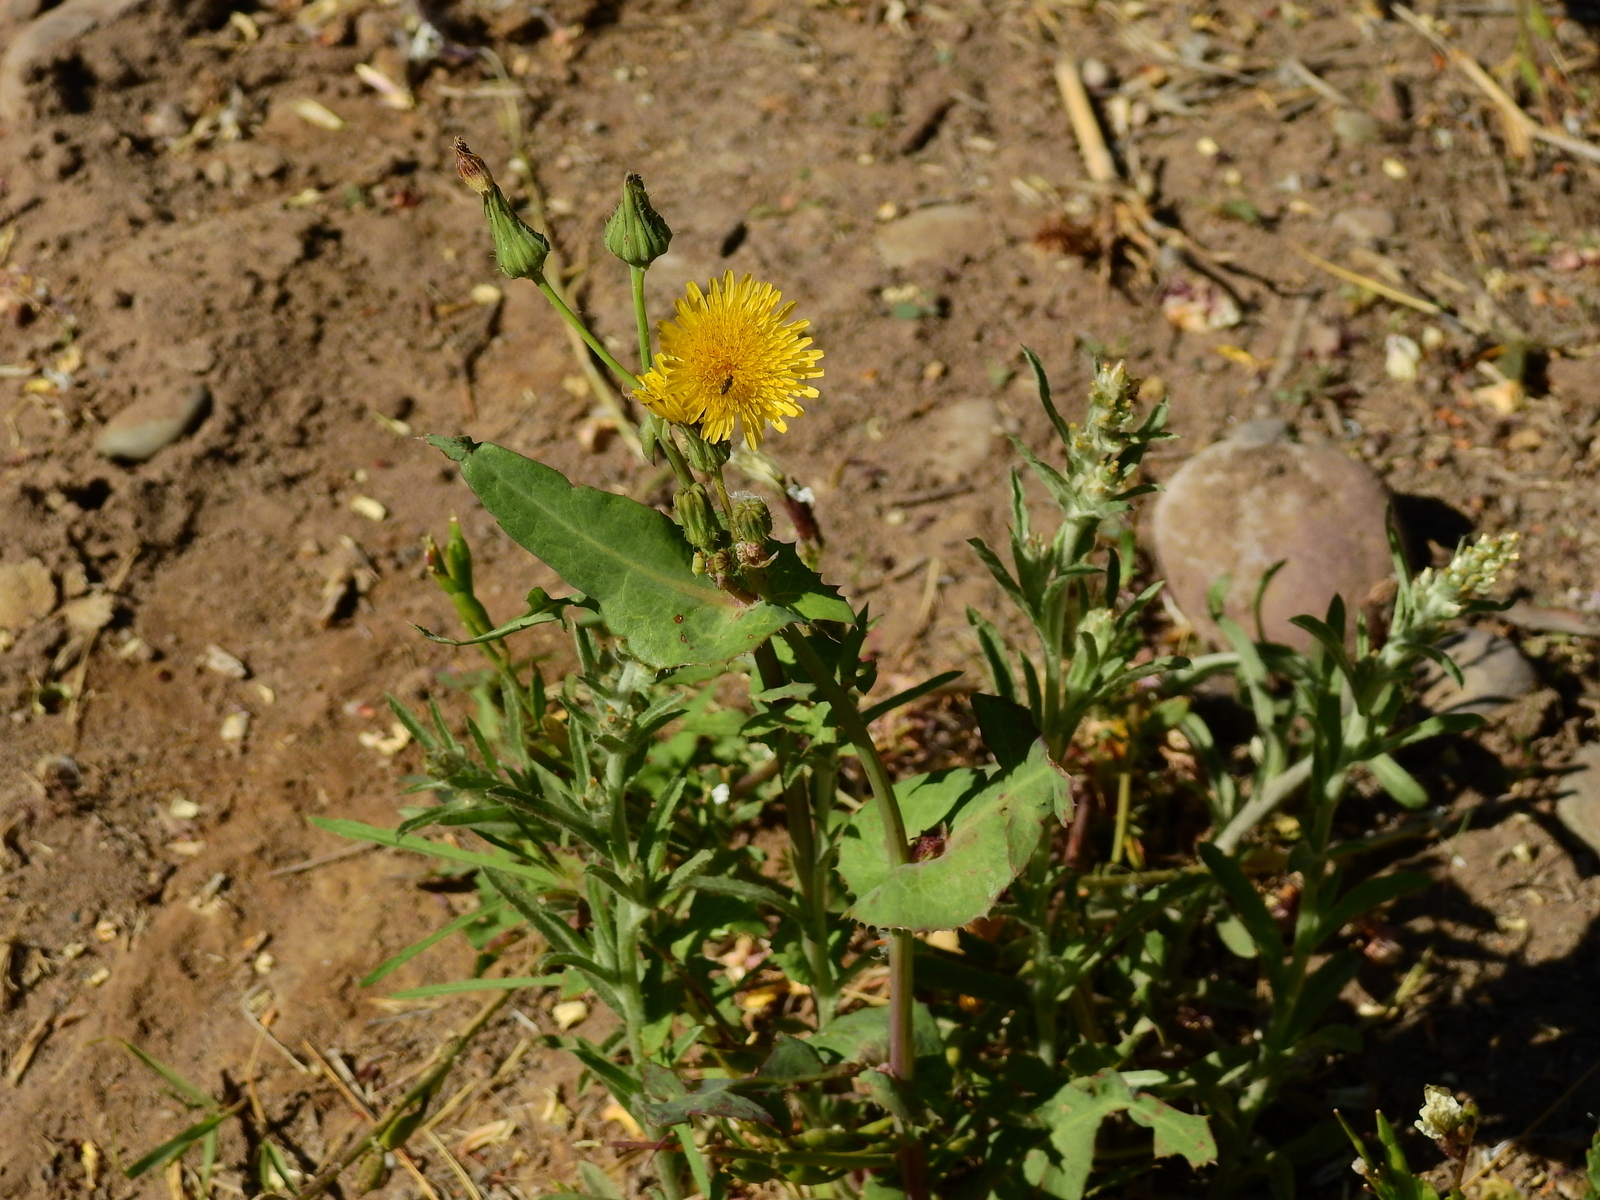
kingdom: Plantae
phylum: Tracheophyta
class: Magnoliopsida
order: Asterales
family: Asteraceae
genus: Sonchus
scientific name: Sonchus oleraceus
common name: Common sowthistle
